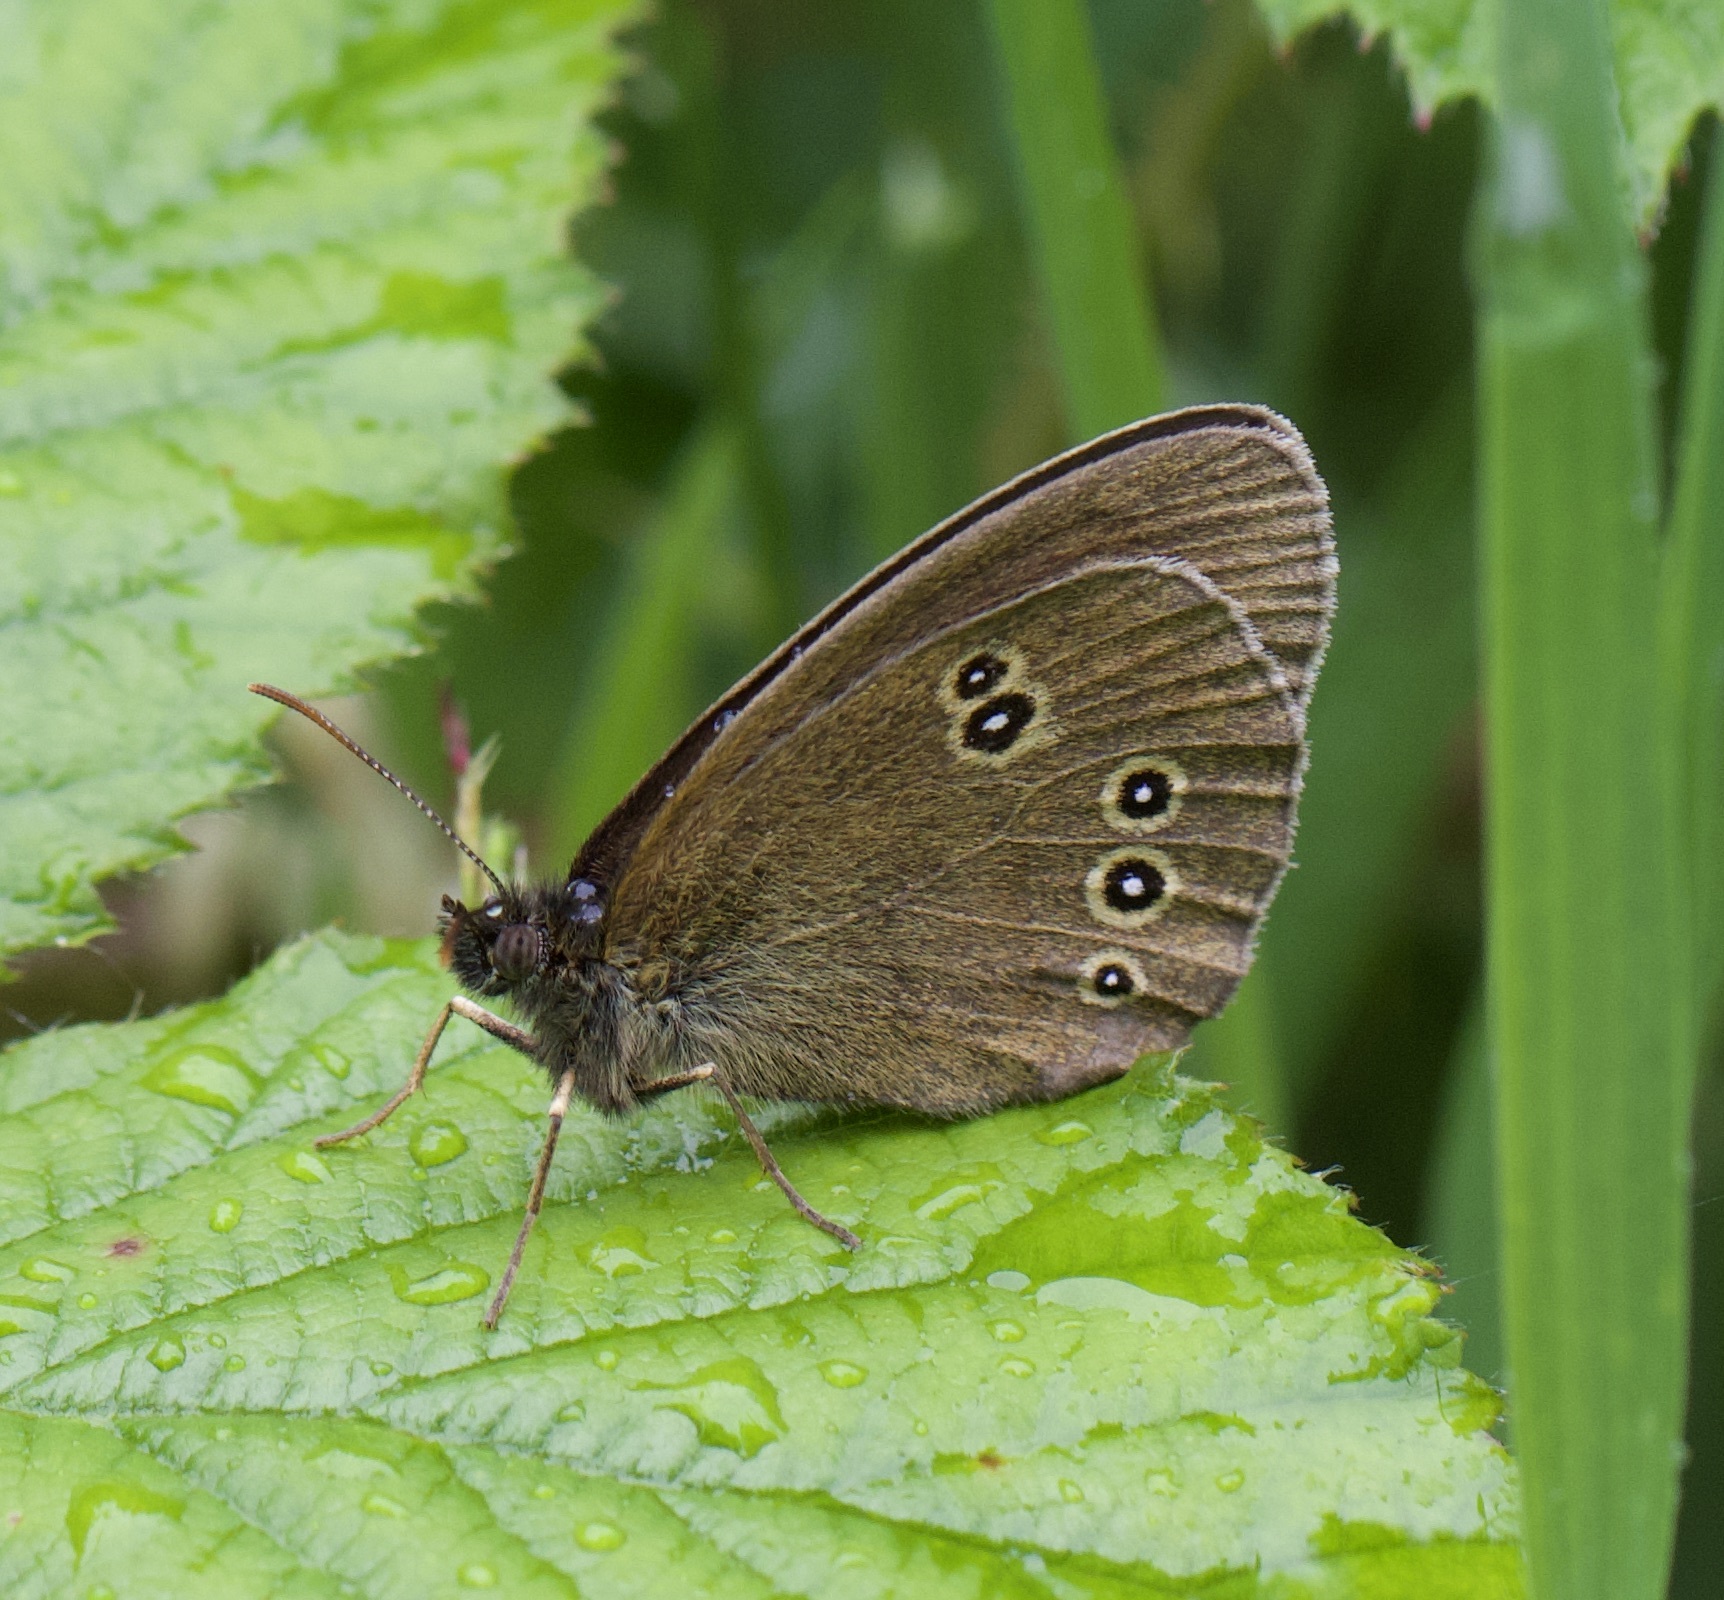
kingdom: Animalia
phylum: Arthropoda
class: Insecta
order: Lepidoptera
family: Nymphalidae
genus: Aphantopus
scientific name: Aphantopus hyperantus
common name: Ringlet
